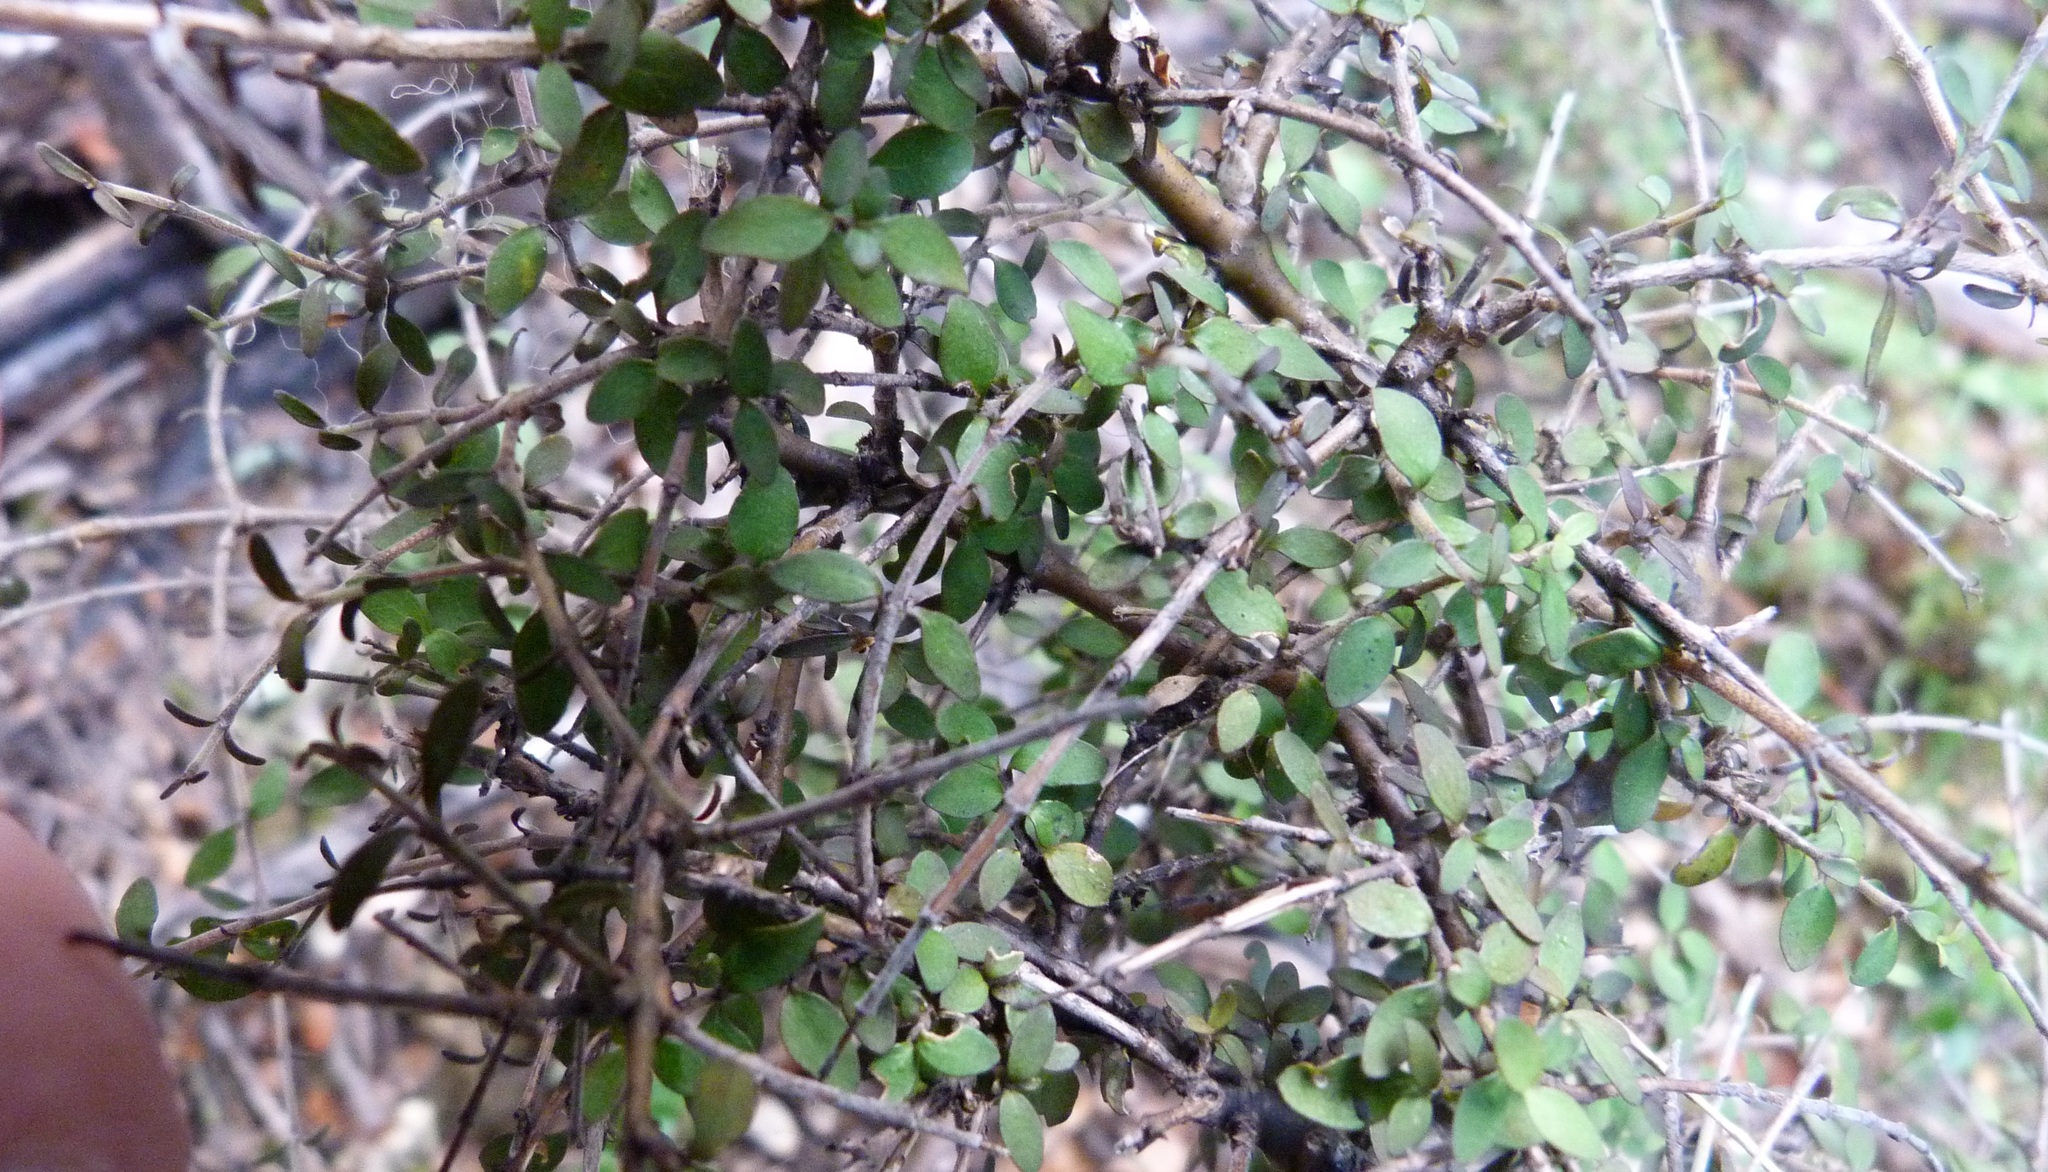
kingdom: Plantae
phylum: Tracheophyta
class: Magnoliopsida
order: Gentianales
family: Rubiaceae
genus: Coprosma
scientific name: Coprosma rhamnoides
